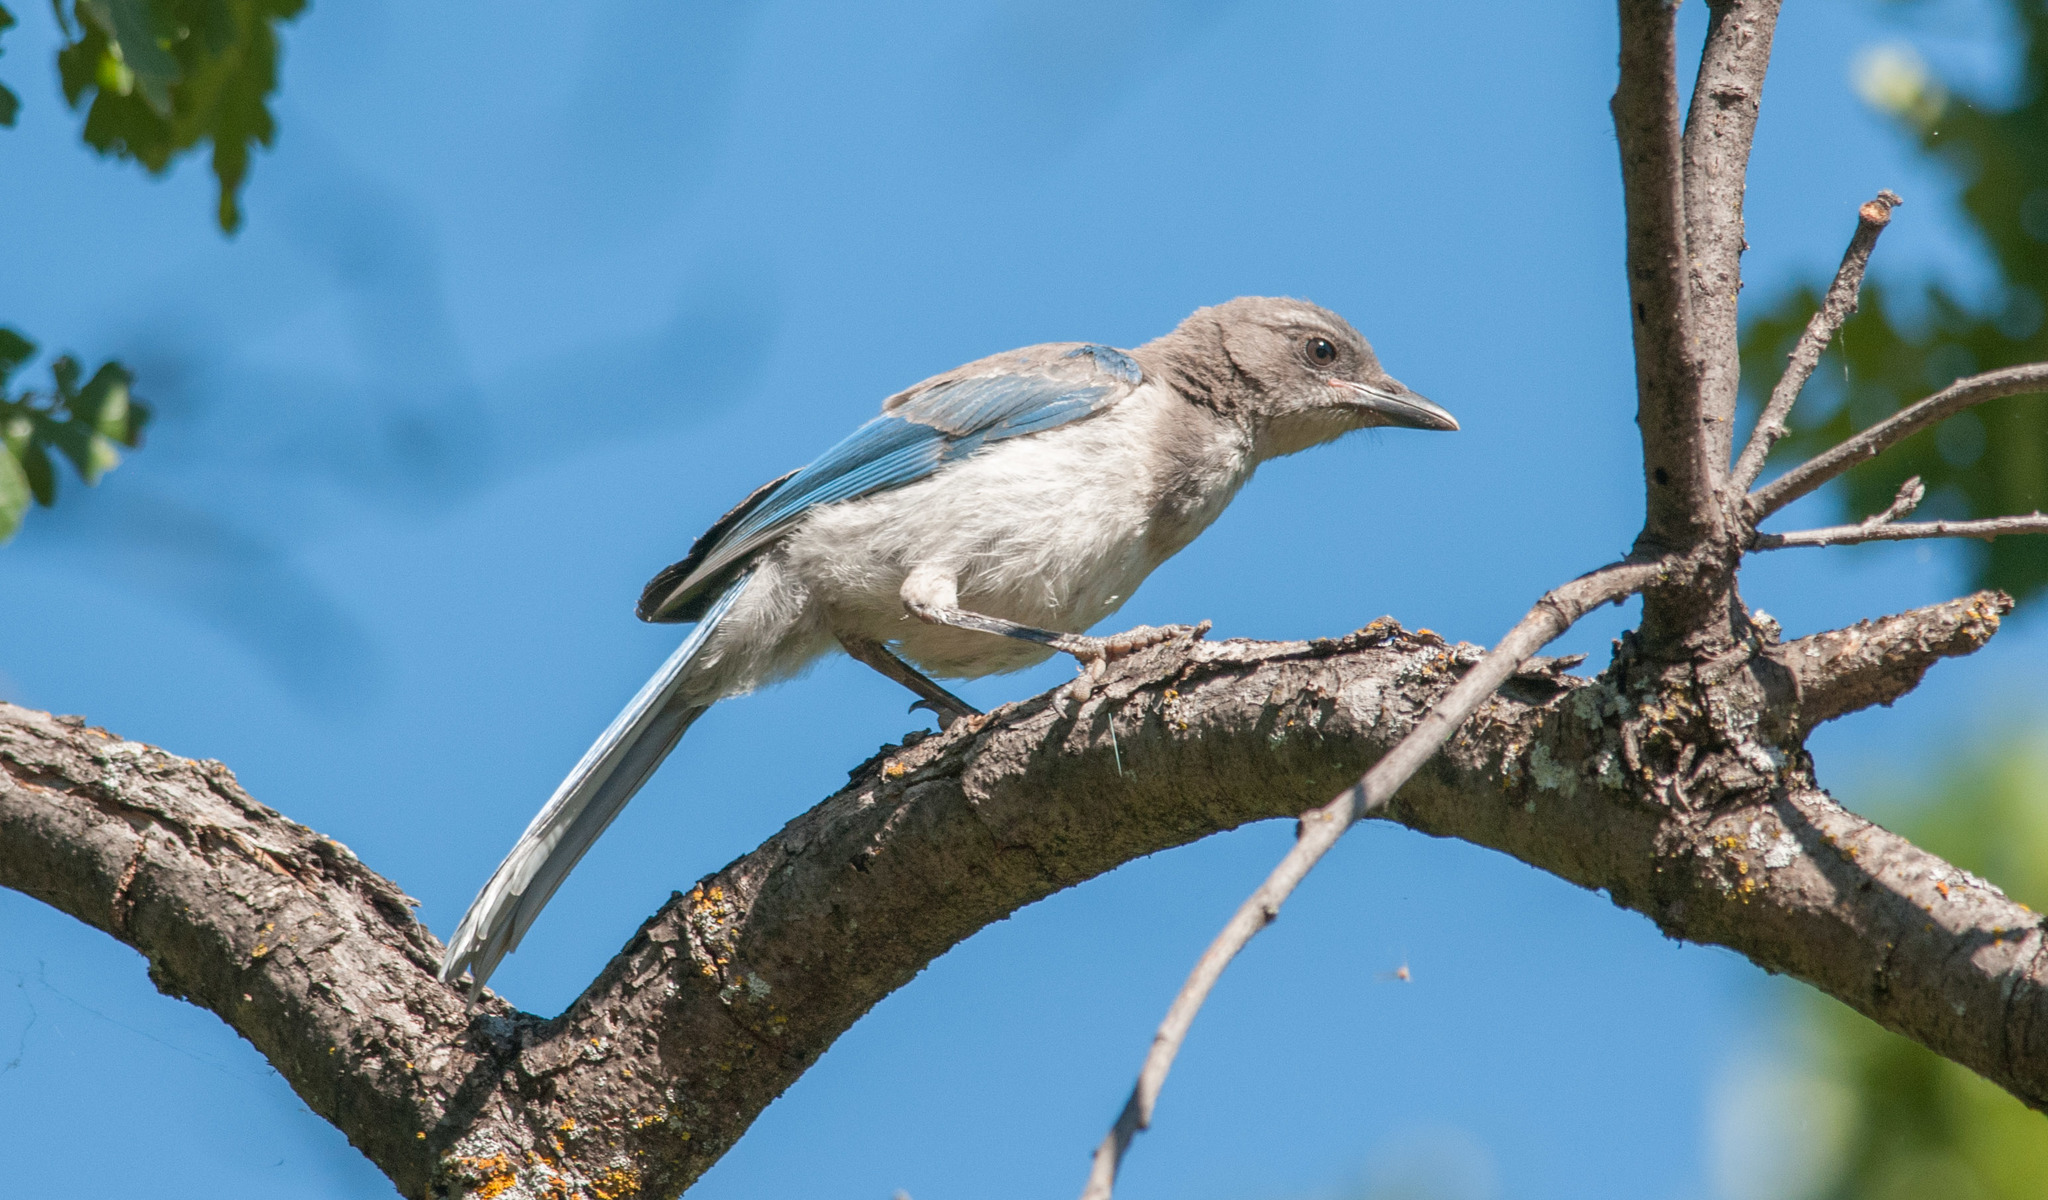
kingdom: Animalia
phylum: Chordata
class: Aves
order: Passeriformes
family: Corvidae
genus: Aphelocoma
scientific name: Aphelocoma californica
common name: California scrub-jay
